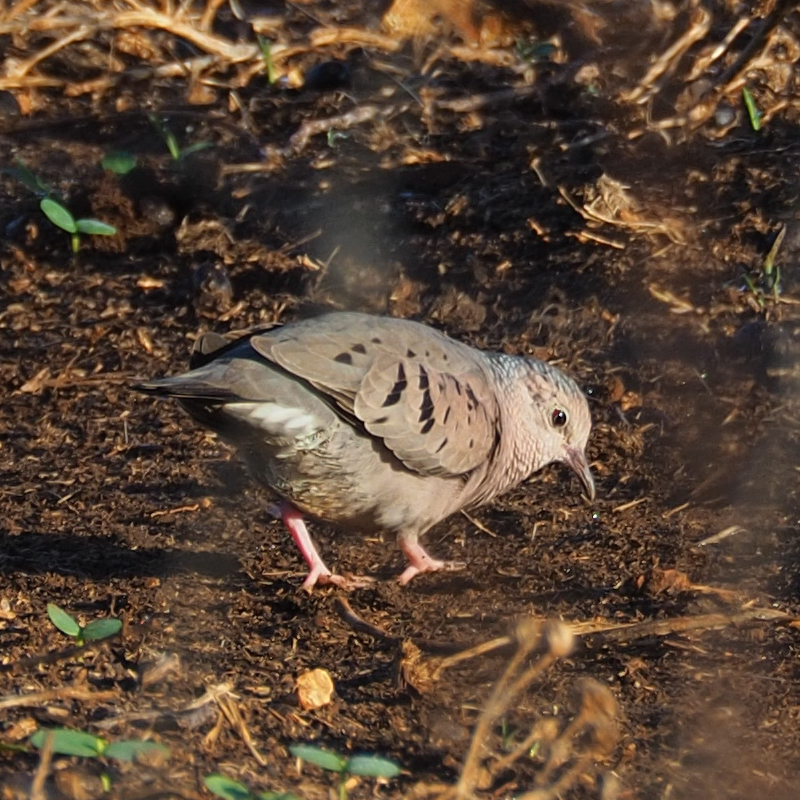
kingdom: Animalia
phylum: Chordata
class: Aves
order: Columbiformes
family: Columbidae
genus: Columbina
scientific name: Columbina passerina
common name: Common ground-dove
